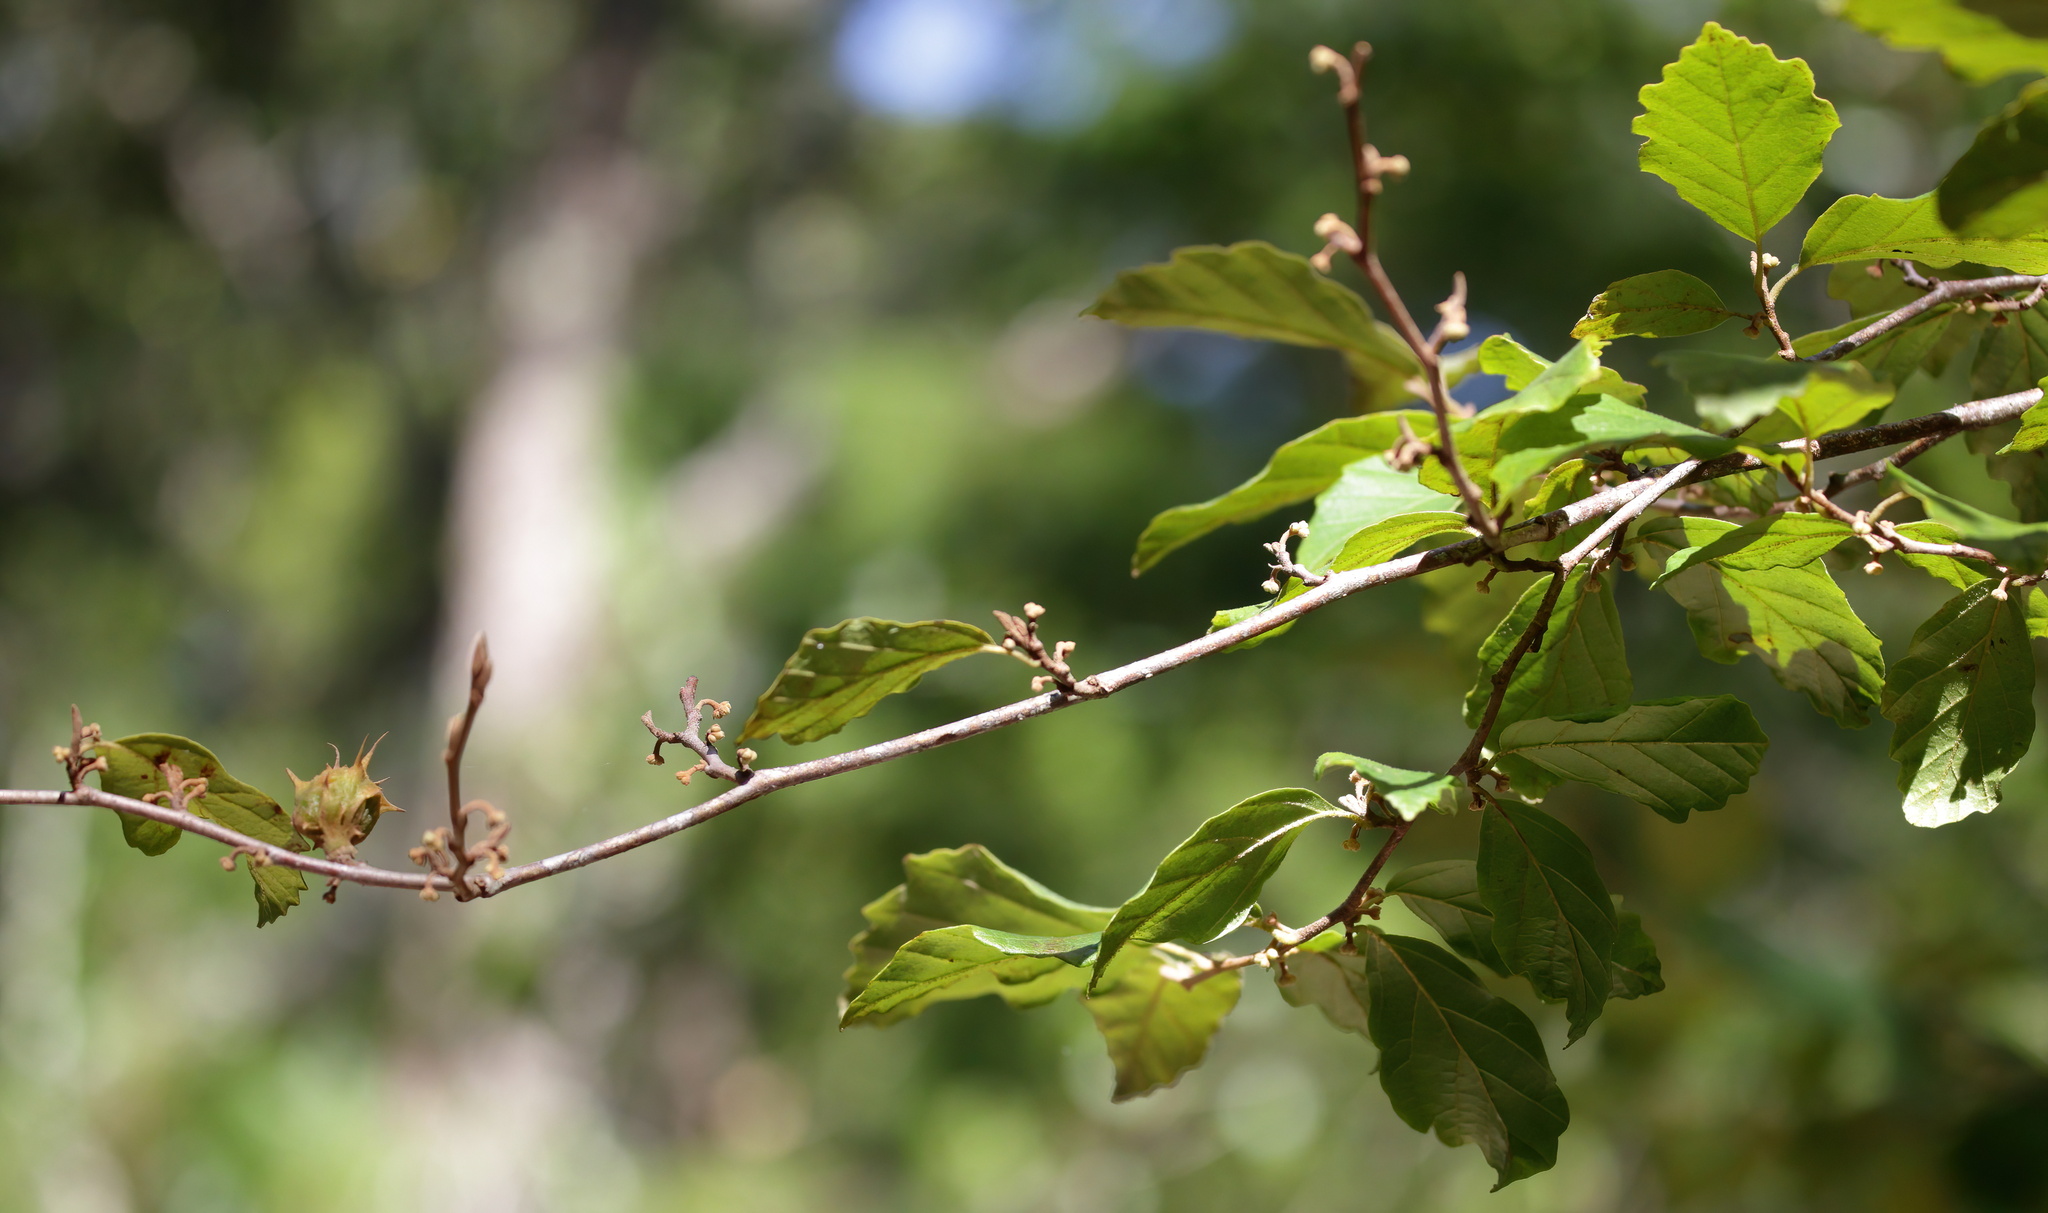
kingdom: Plantae
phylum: Tracheophyta
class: Magnoliopsida
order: Saxifragales
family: Hamamelidaceae
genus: Hamamelis
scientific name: Hamamelis virginiana
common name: Witch-hazel
